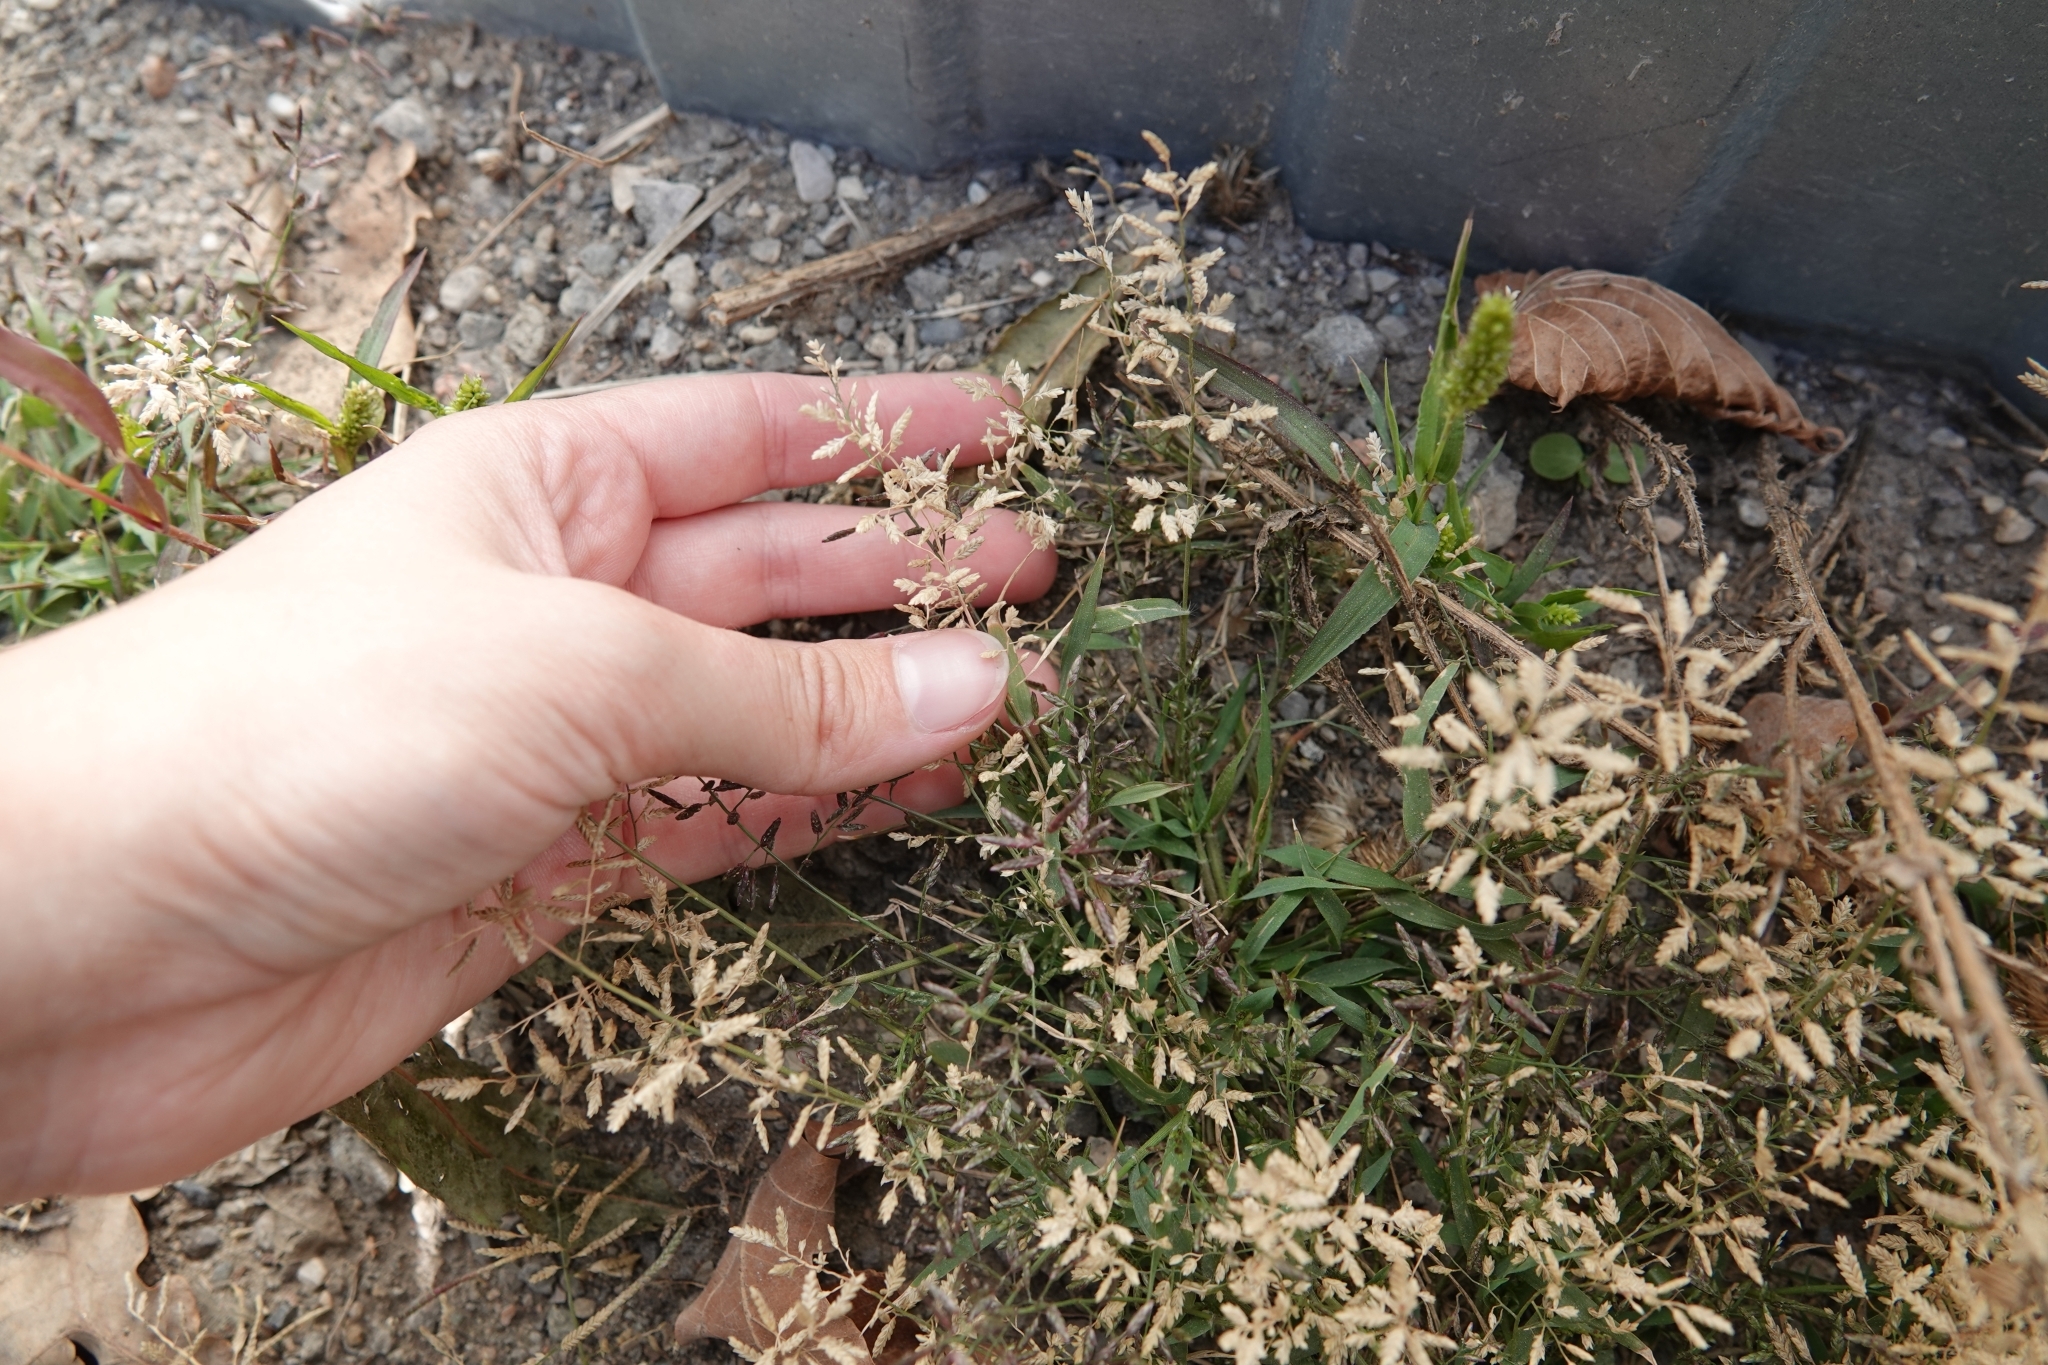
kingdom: Plantae
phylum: Tracheophyta
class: Liliopsida
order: Poales
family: Poaceae
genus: Eragrostis
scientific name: Eragrostis minor
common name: Small love-grass
